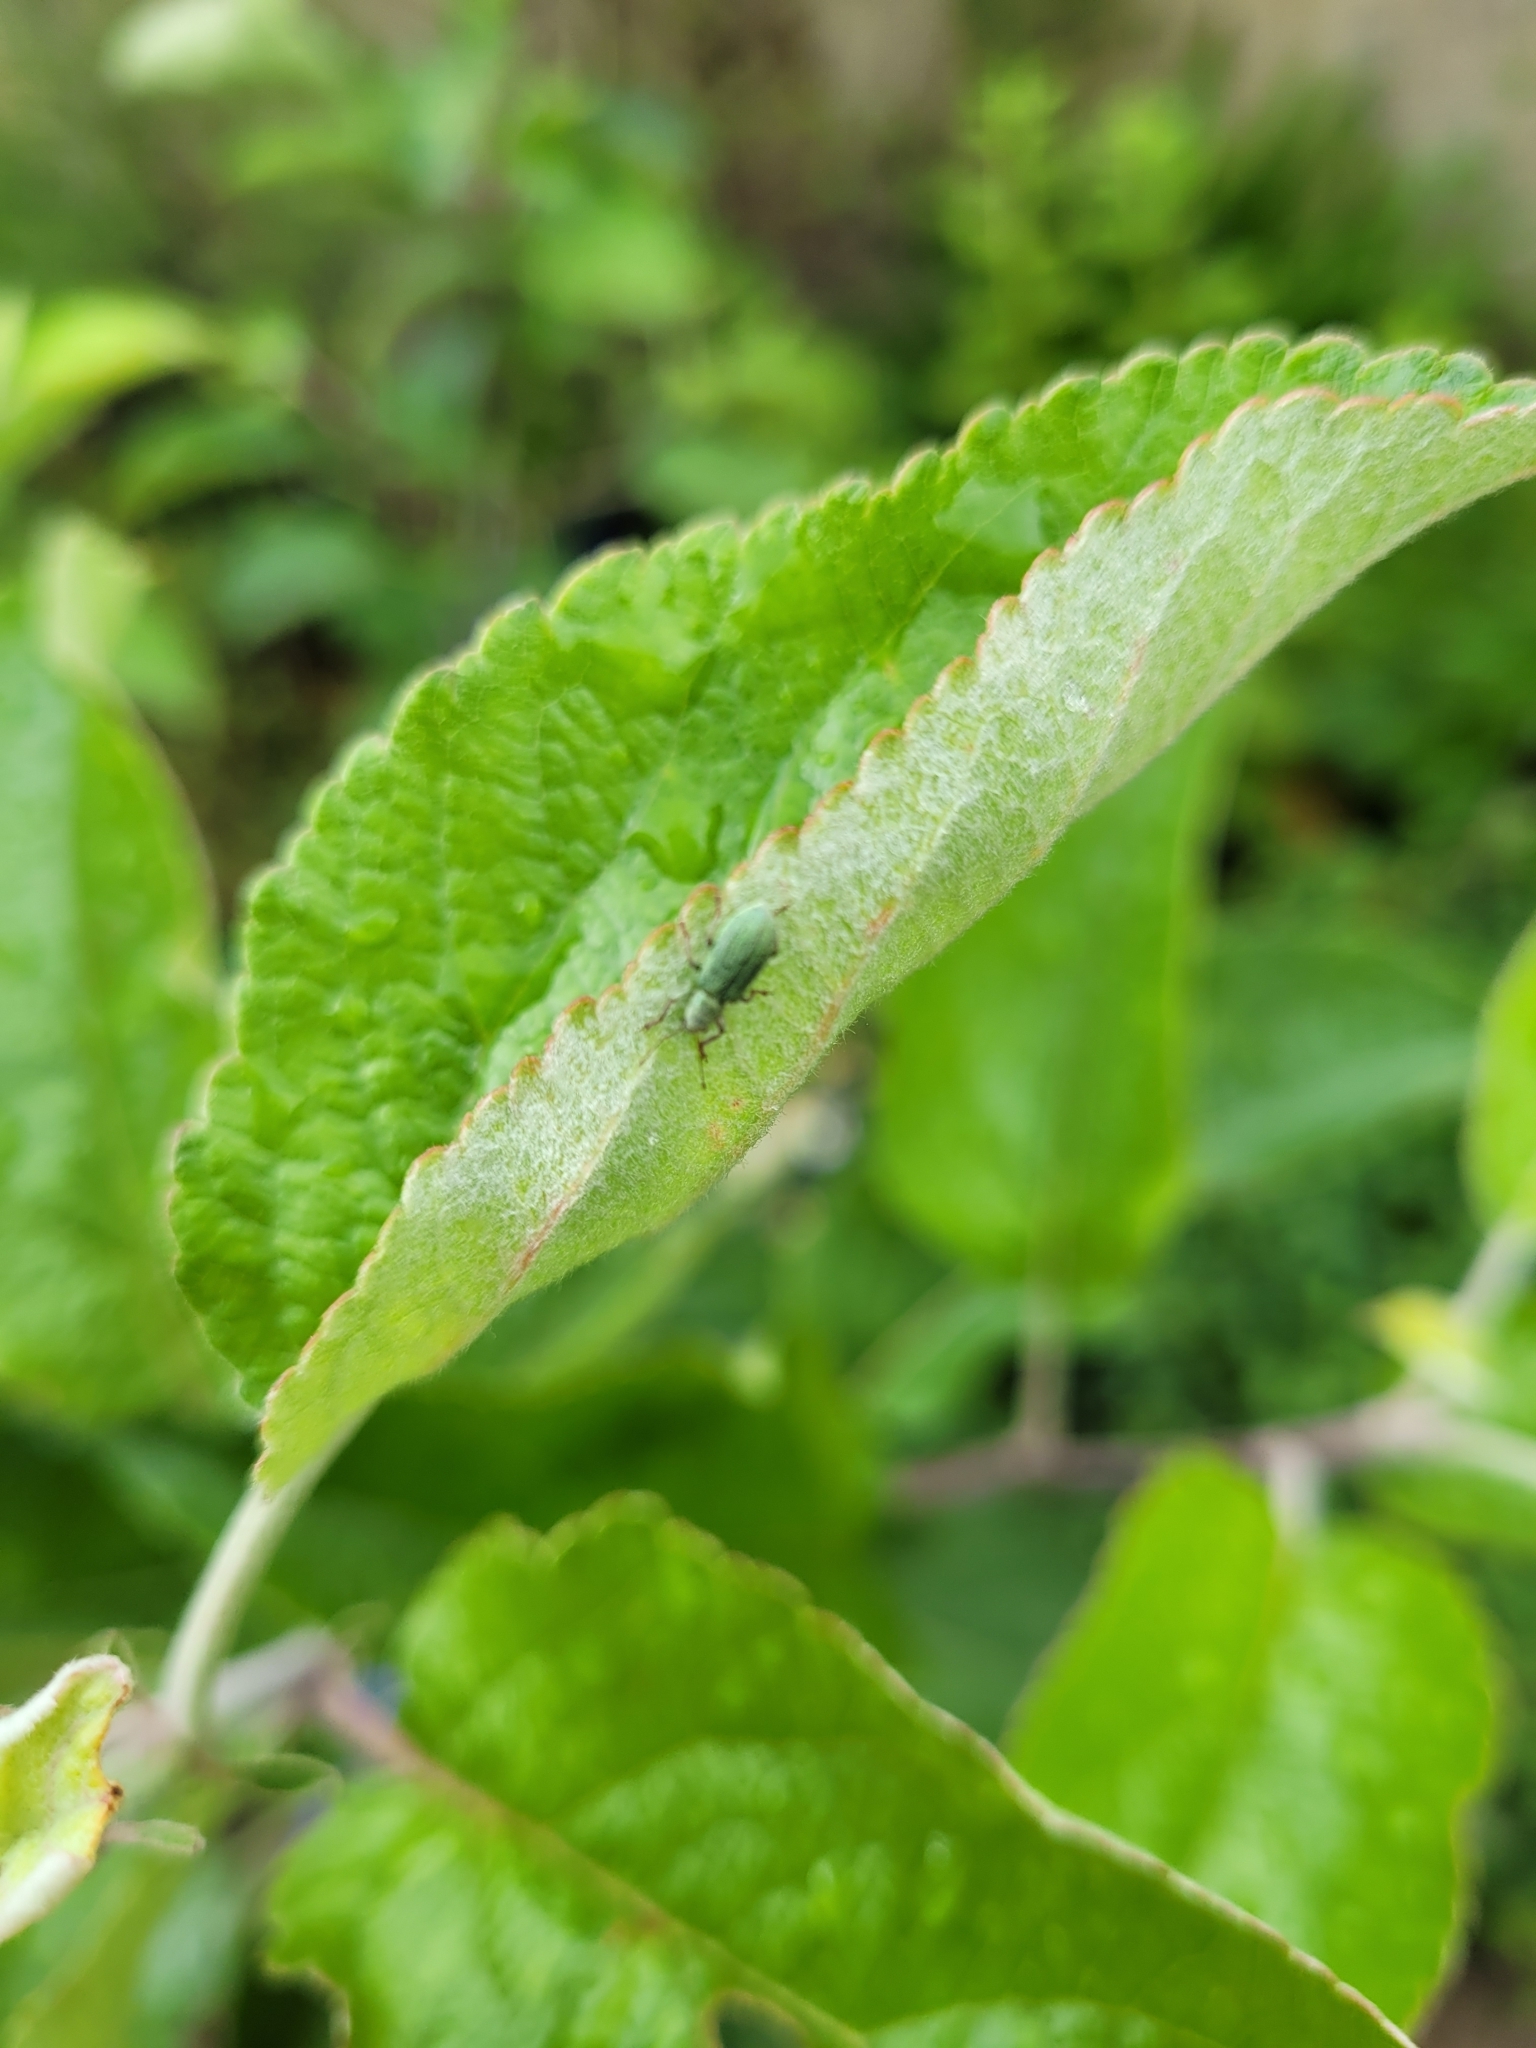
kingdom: Animalia
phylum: Arthropoda
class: Insecta
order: Coleoptera
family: Curculionidae
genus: Polydrusus
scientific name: Polydrusus impressifrons
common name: Weevil
